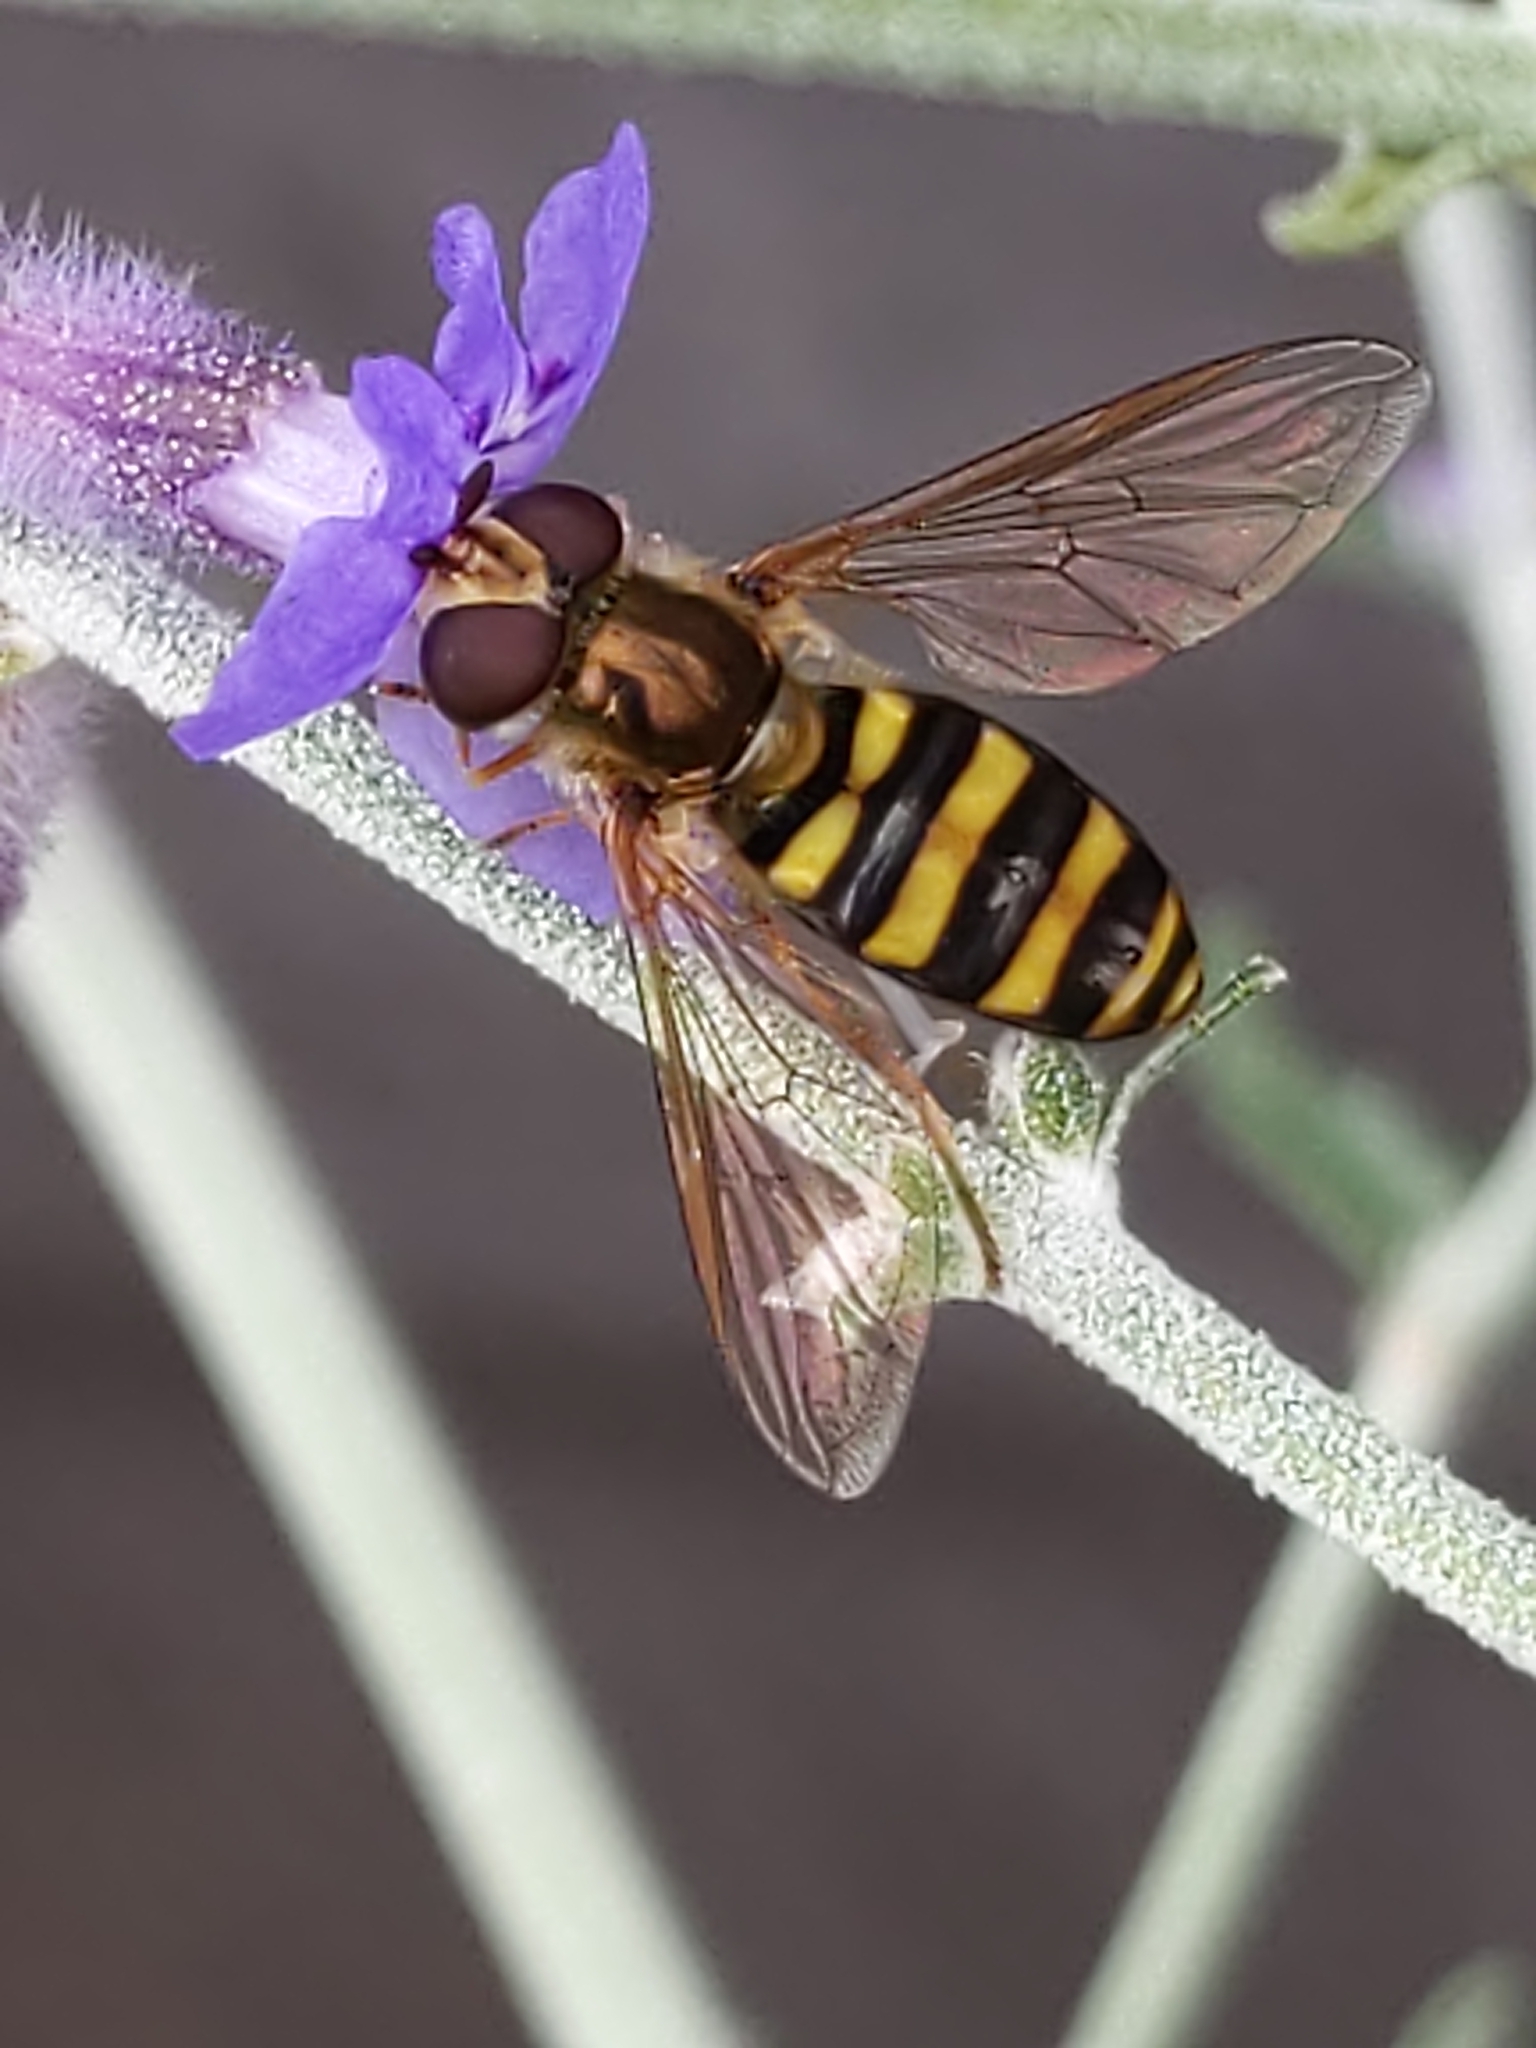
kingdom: Animalia
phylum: Arthropoda
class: Insecta
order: Diptera
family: Syrphidae
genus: Eupeodes
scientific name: Eupeodes
